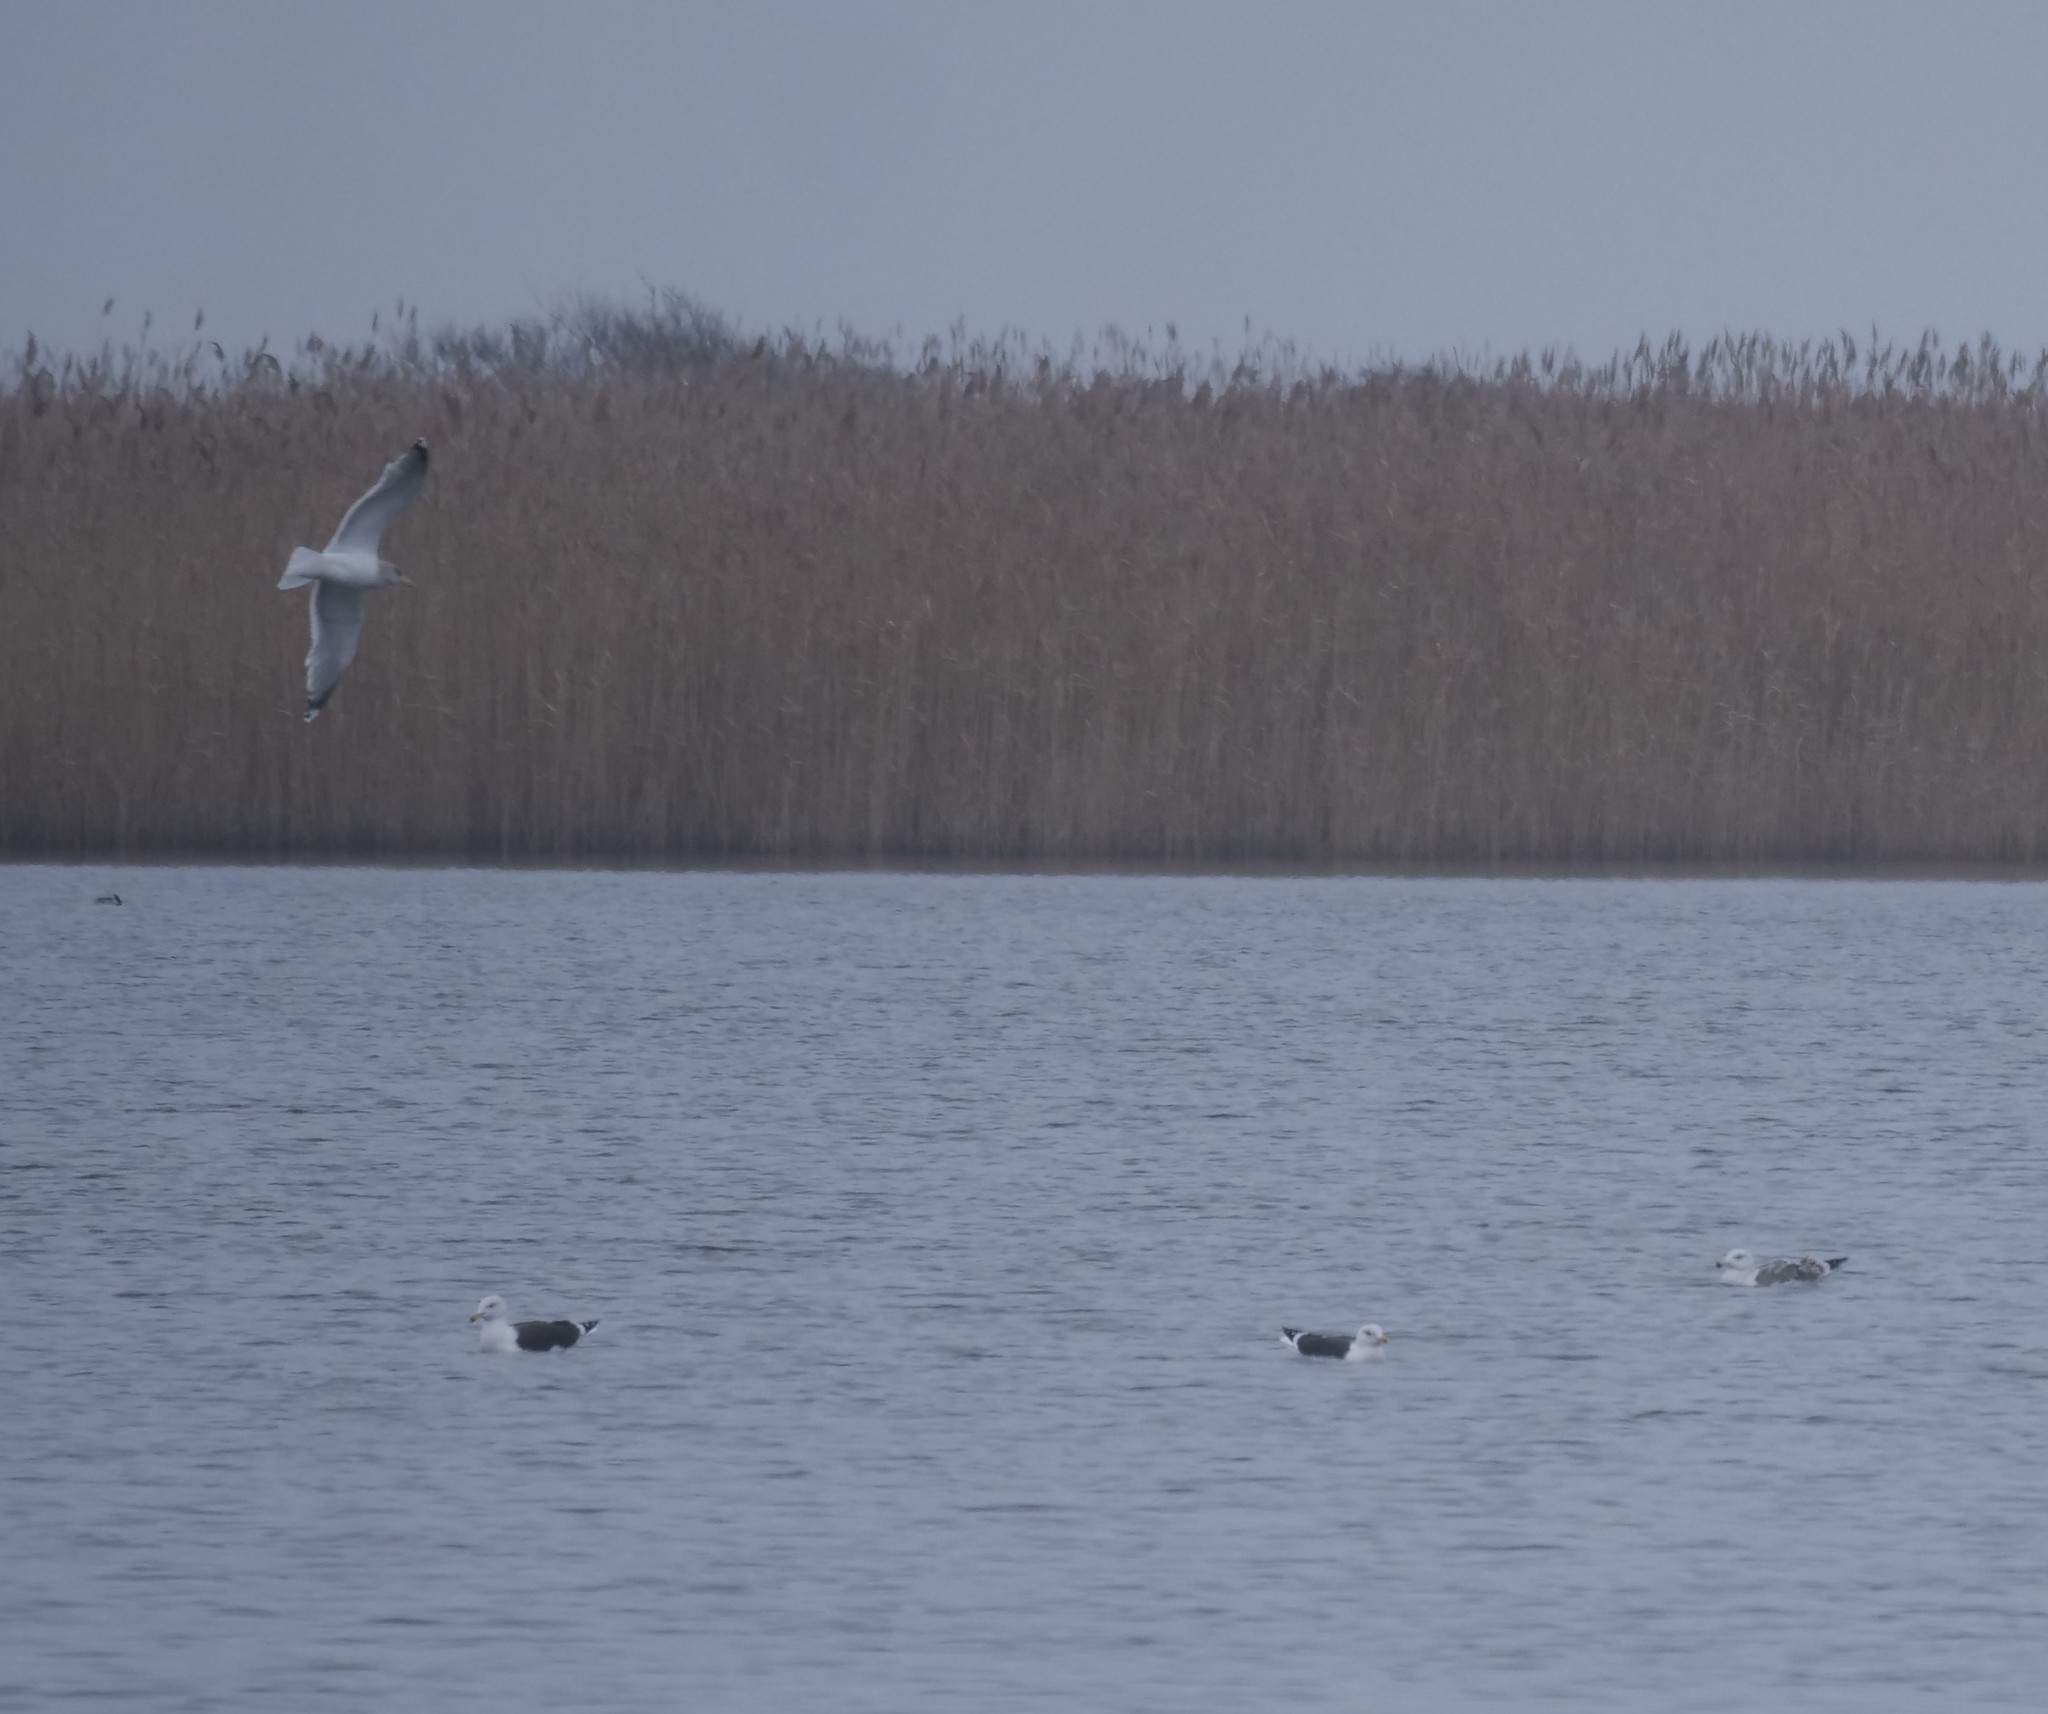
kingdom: Animalia
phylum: Chordata
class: Aves
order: Charadriiformes
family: Laridae
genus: Larus
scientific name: Larus argentatus
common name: Herring gull
